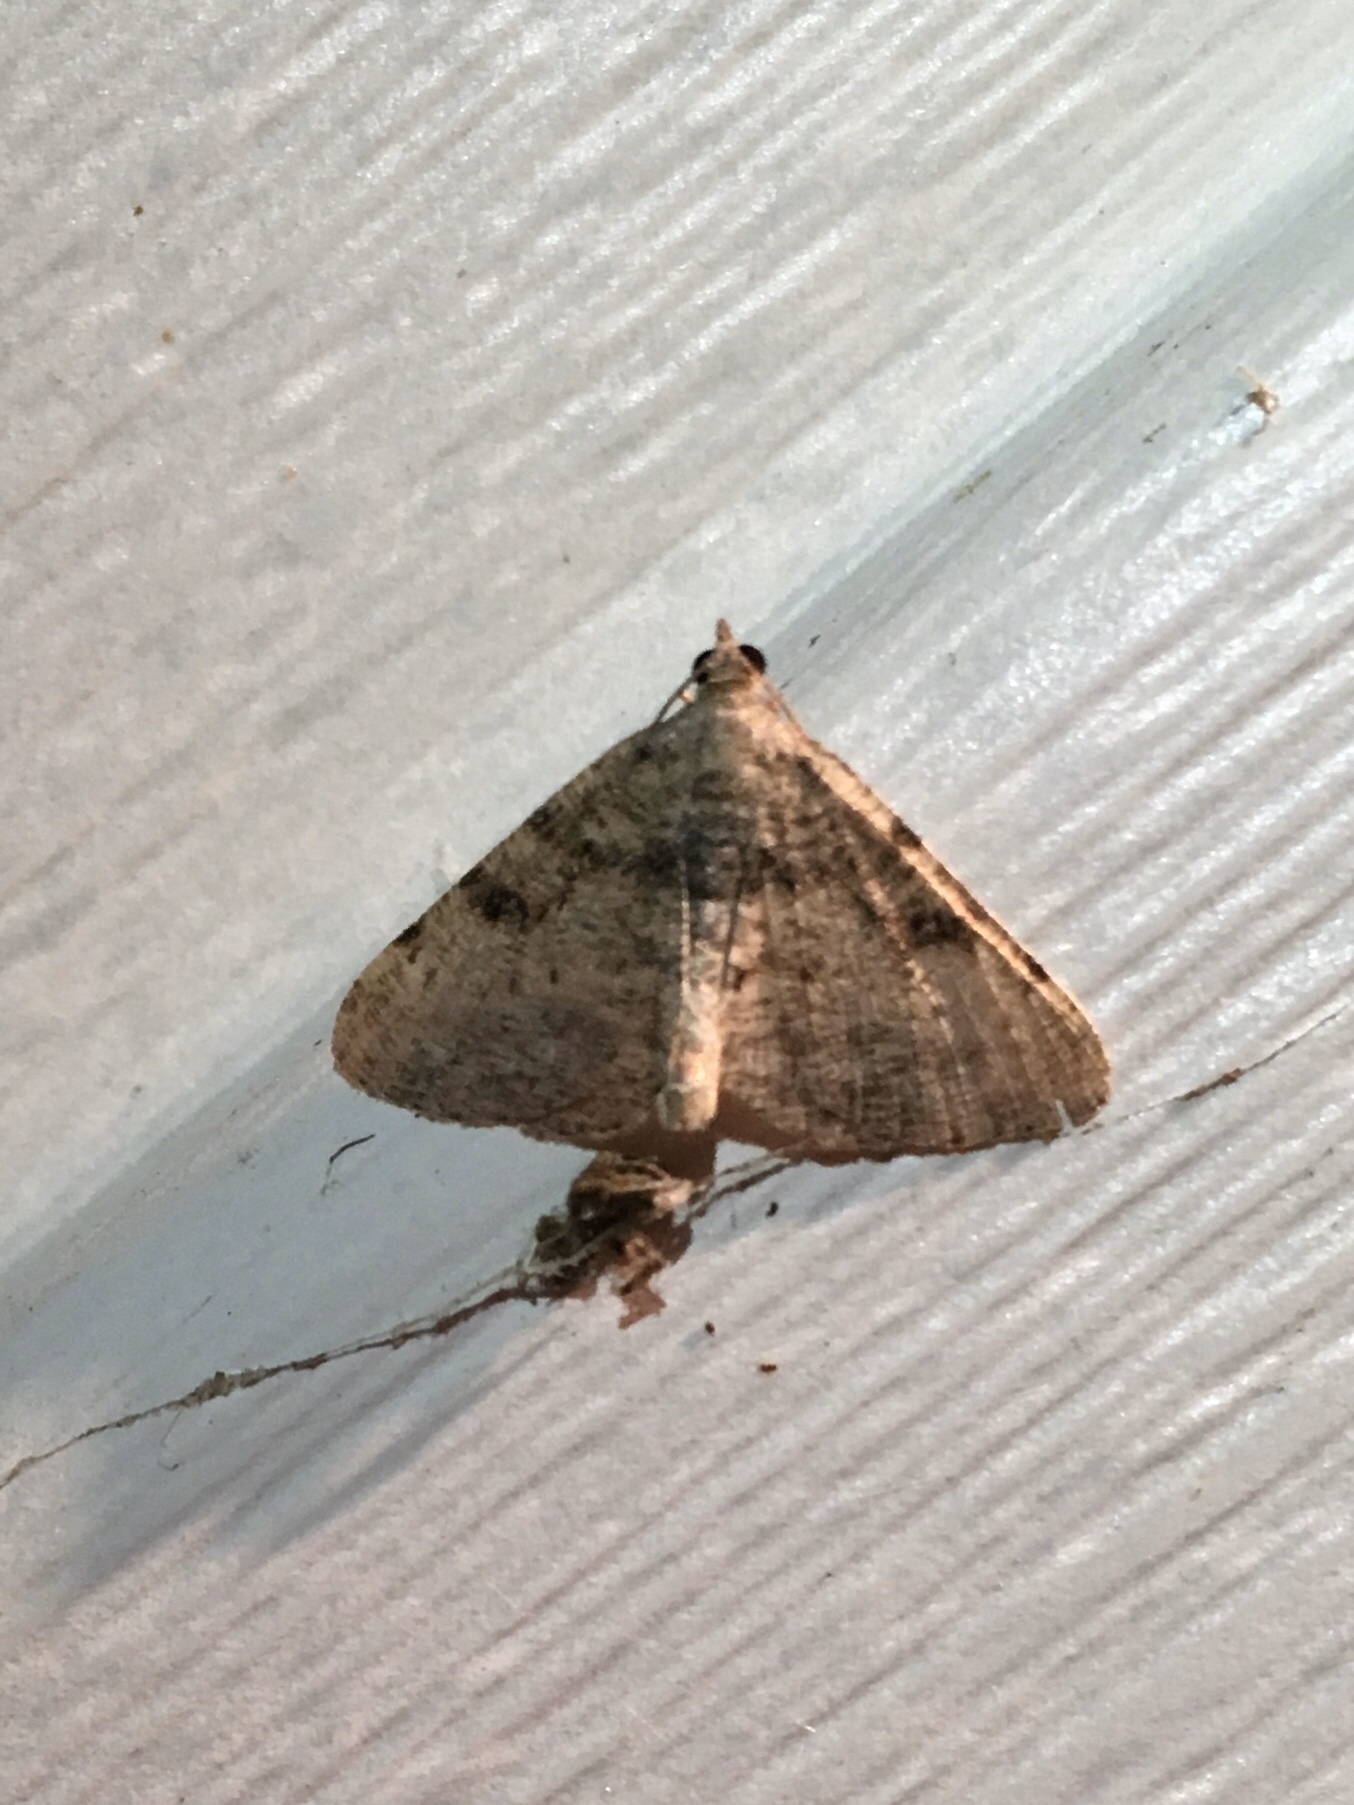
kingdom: Animalia
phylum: Arthropoda
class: Insecta
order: Lepidoptera
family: Geometridae
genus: Digrammia
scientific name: Digrammia gnophosaria
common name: Hollow-spotted angle
